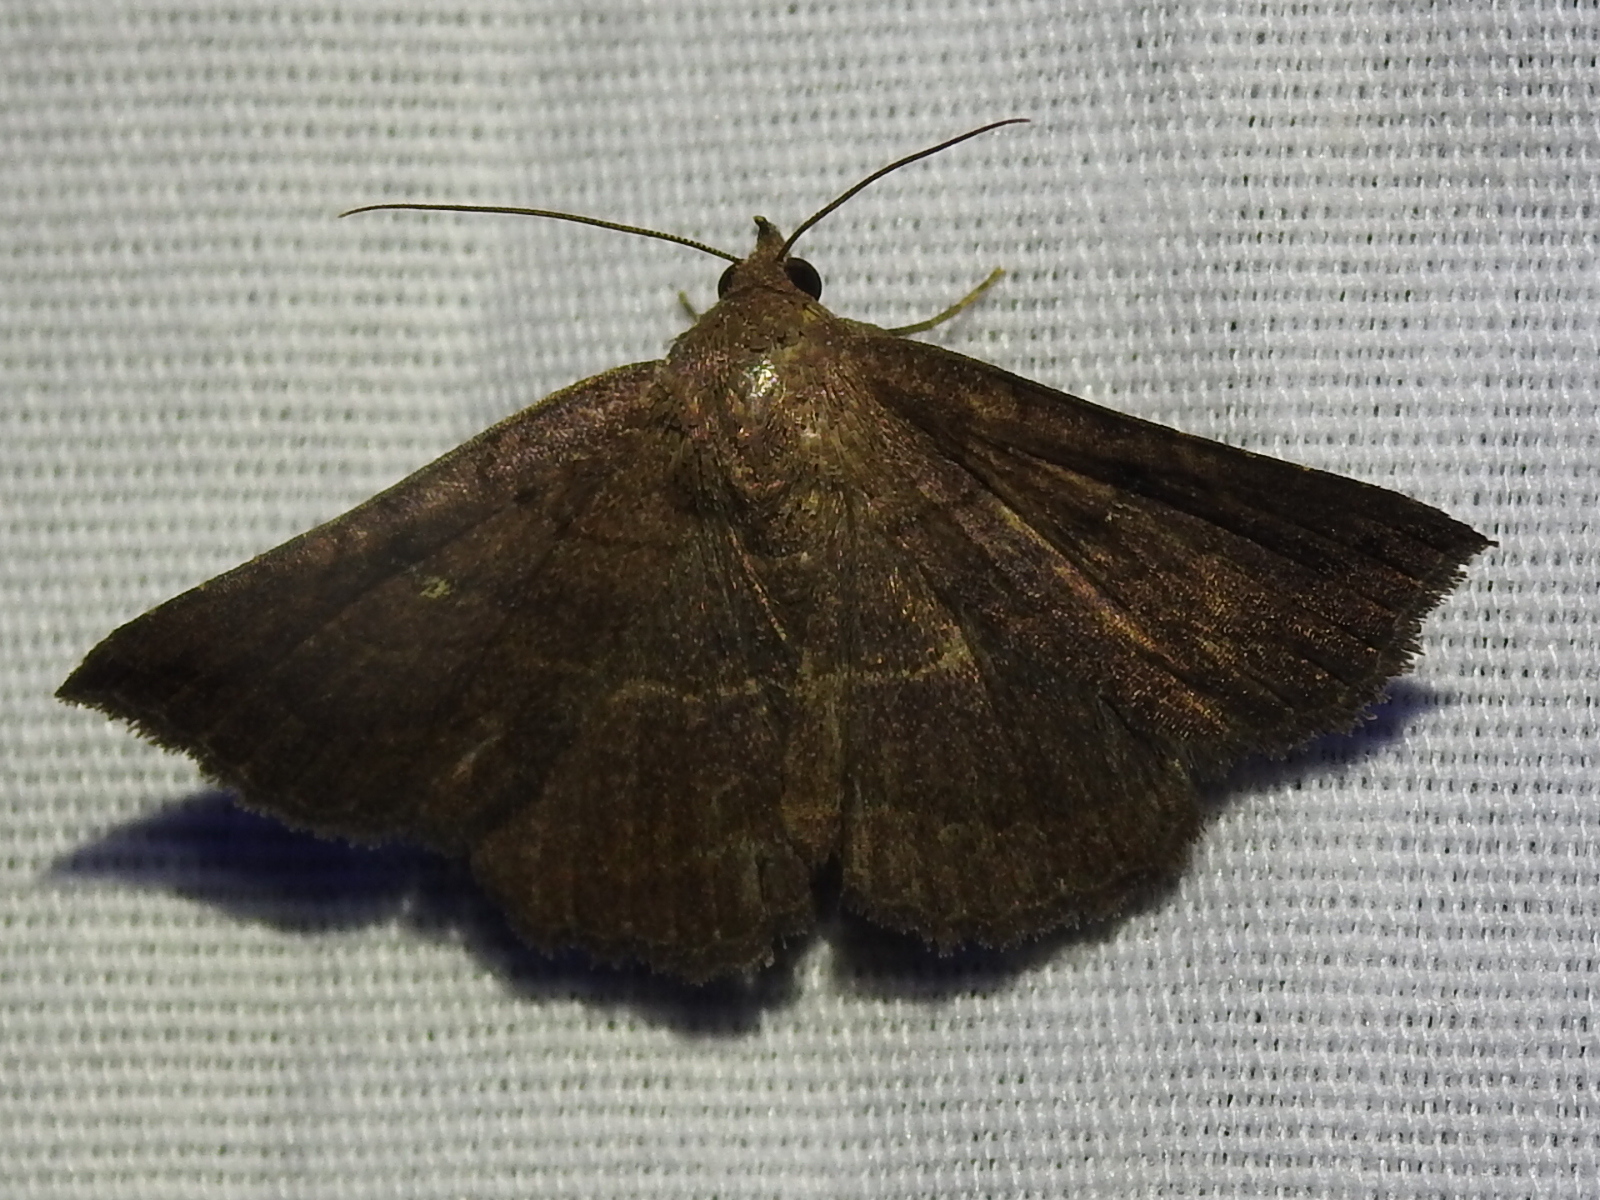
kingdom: Animalia
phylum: Arthropoda
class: Insecta
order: Lepidoptera
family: Erebidae
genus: Lesmone
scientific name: Lesmone detrahens
